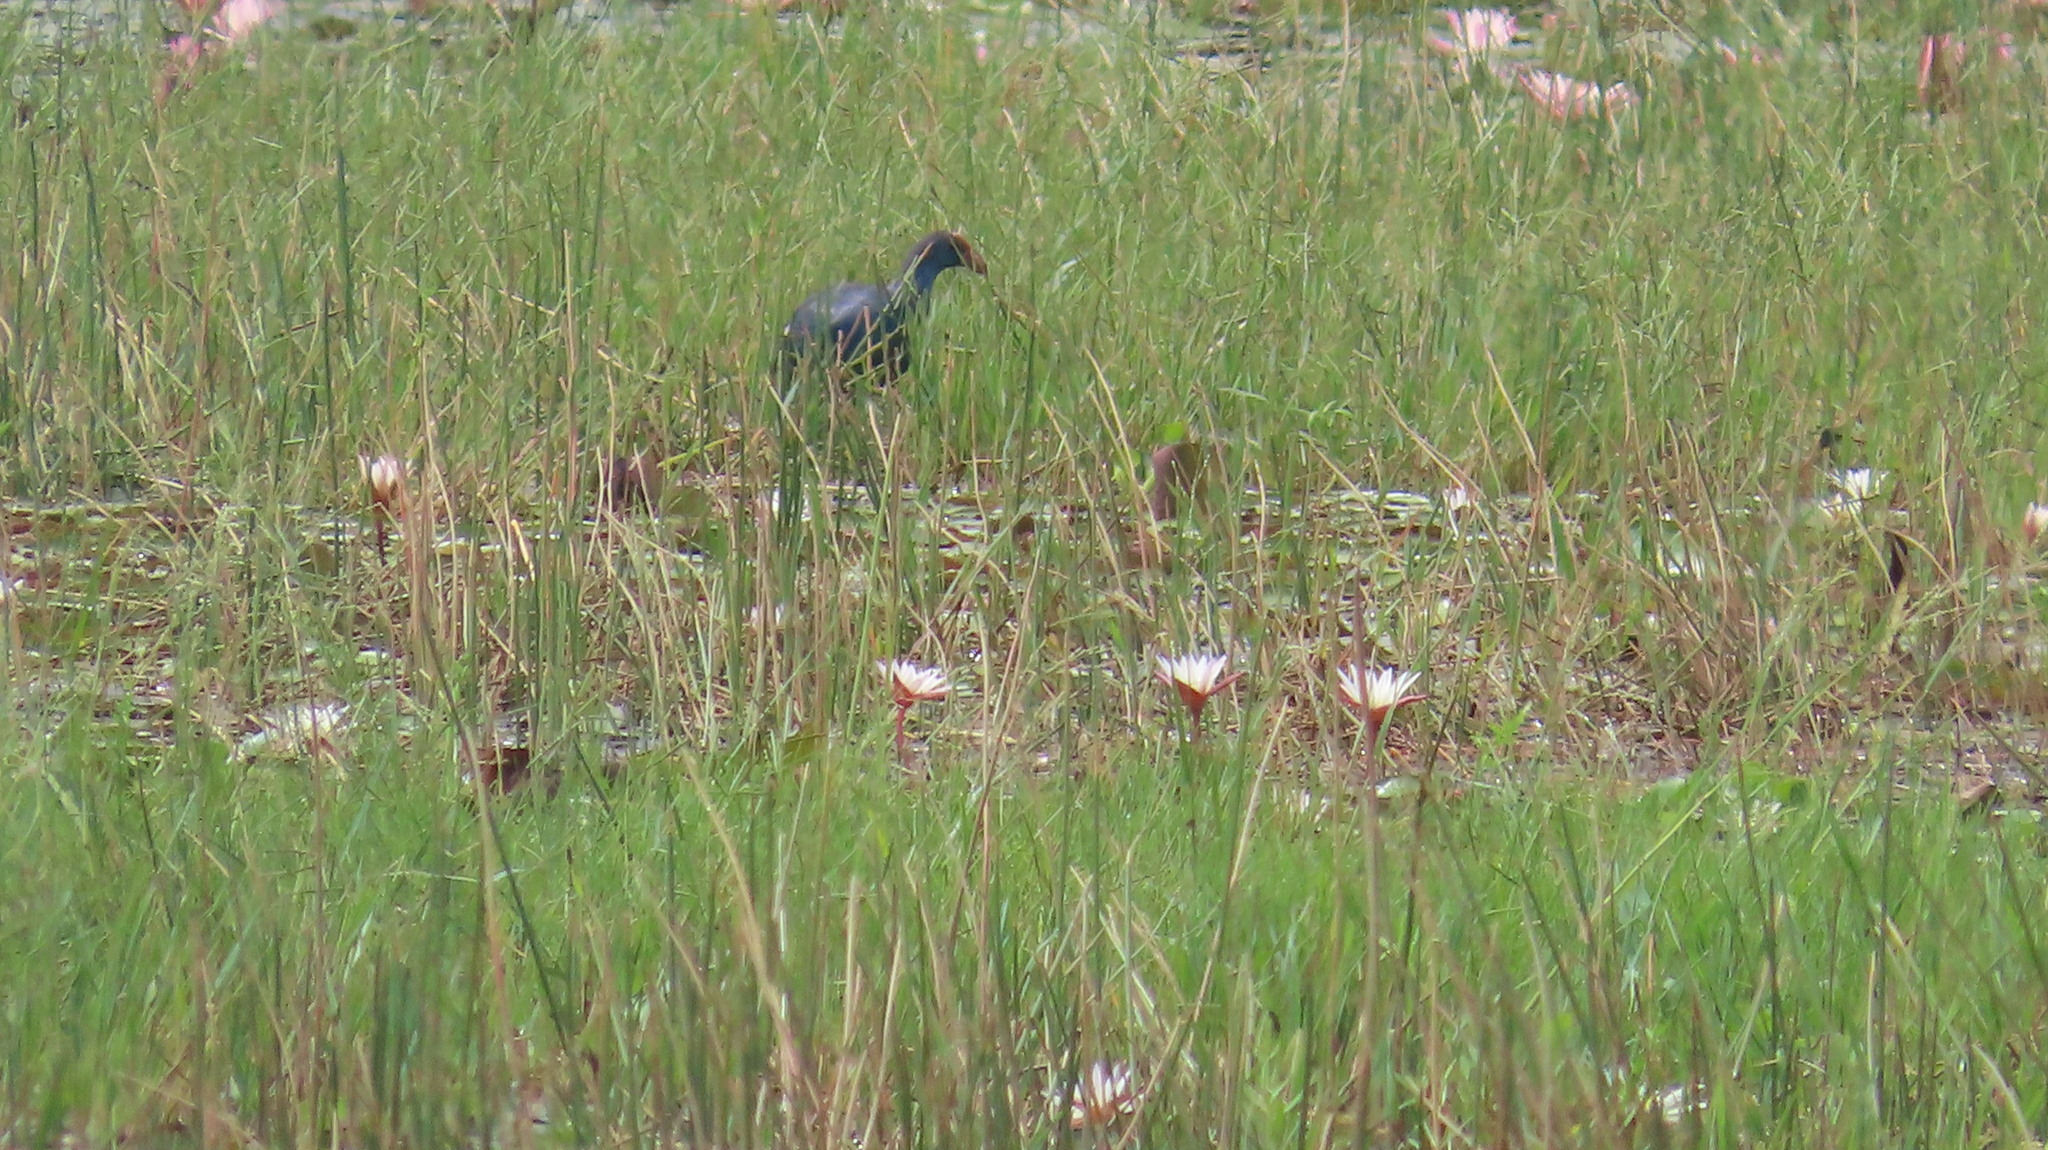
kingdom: Animalia
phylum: Chordata
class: Aves
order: Gruiformes
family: Rallidae
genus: Porphyrio
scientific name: Porphyrio porphyrio
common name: Purple swamphen
